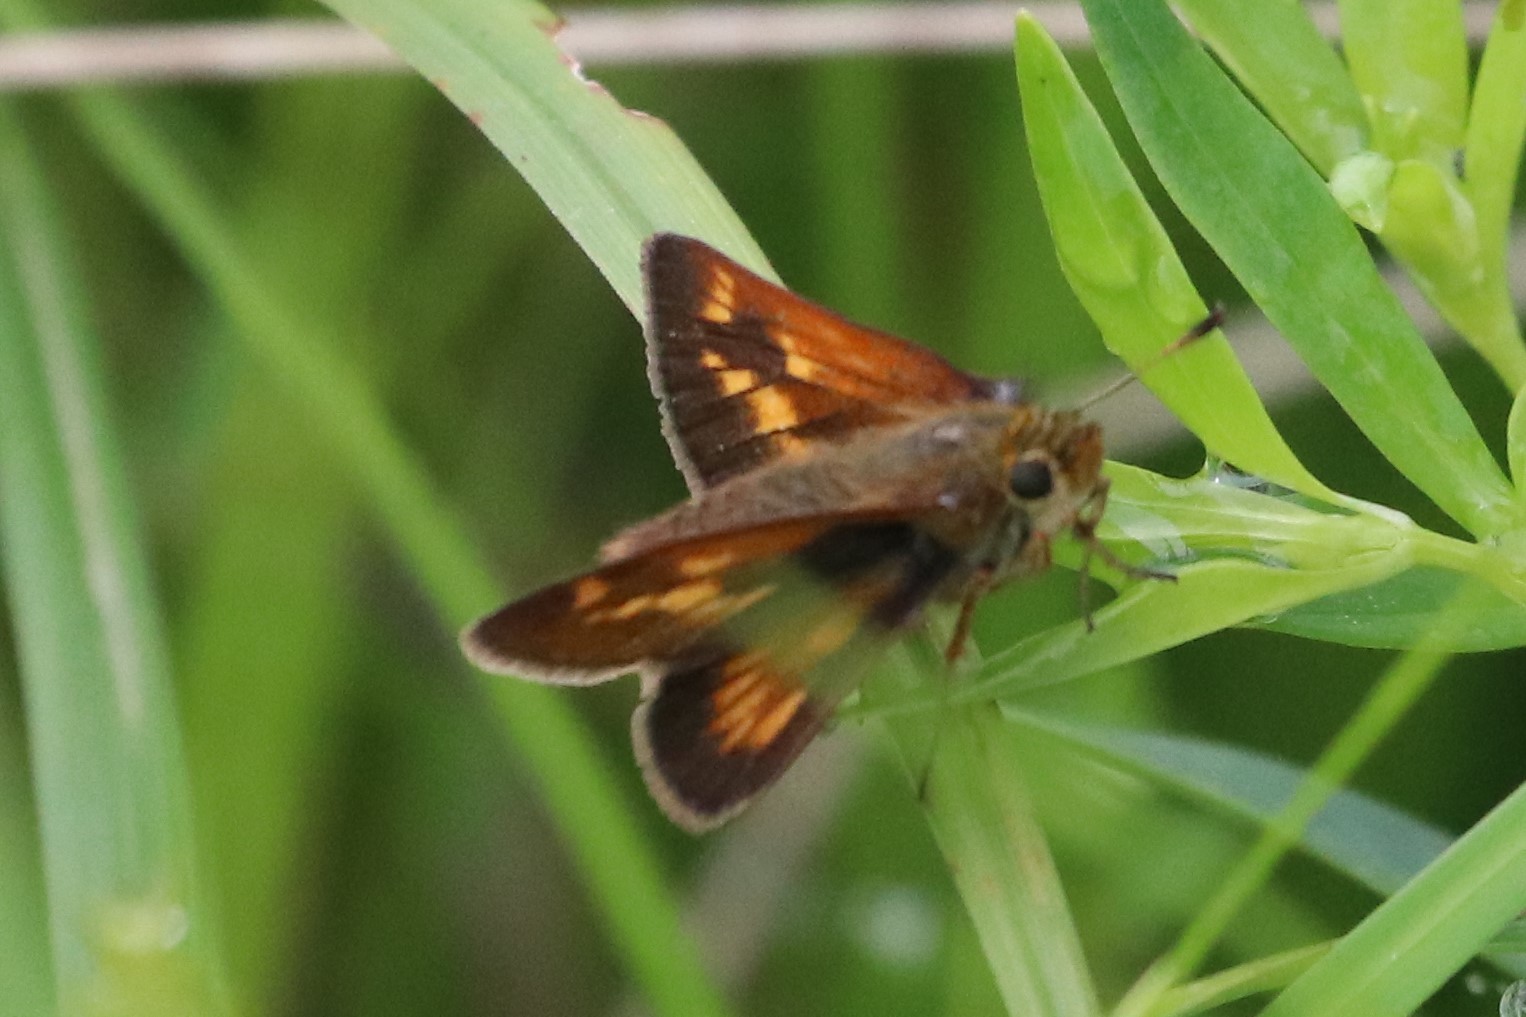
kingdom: Animalia
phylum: Arthropoda
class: Insecta
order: Lepidoptera
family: Hesperiidae
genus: Polites
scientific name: Polites mystic
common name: Long dash
